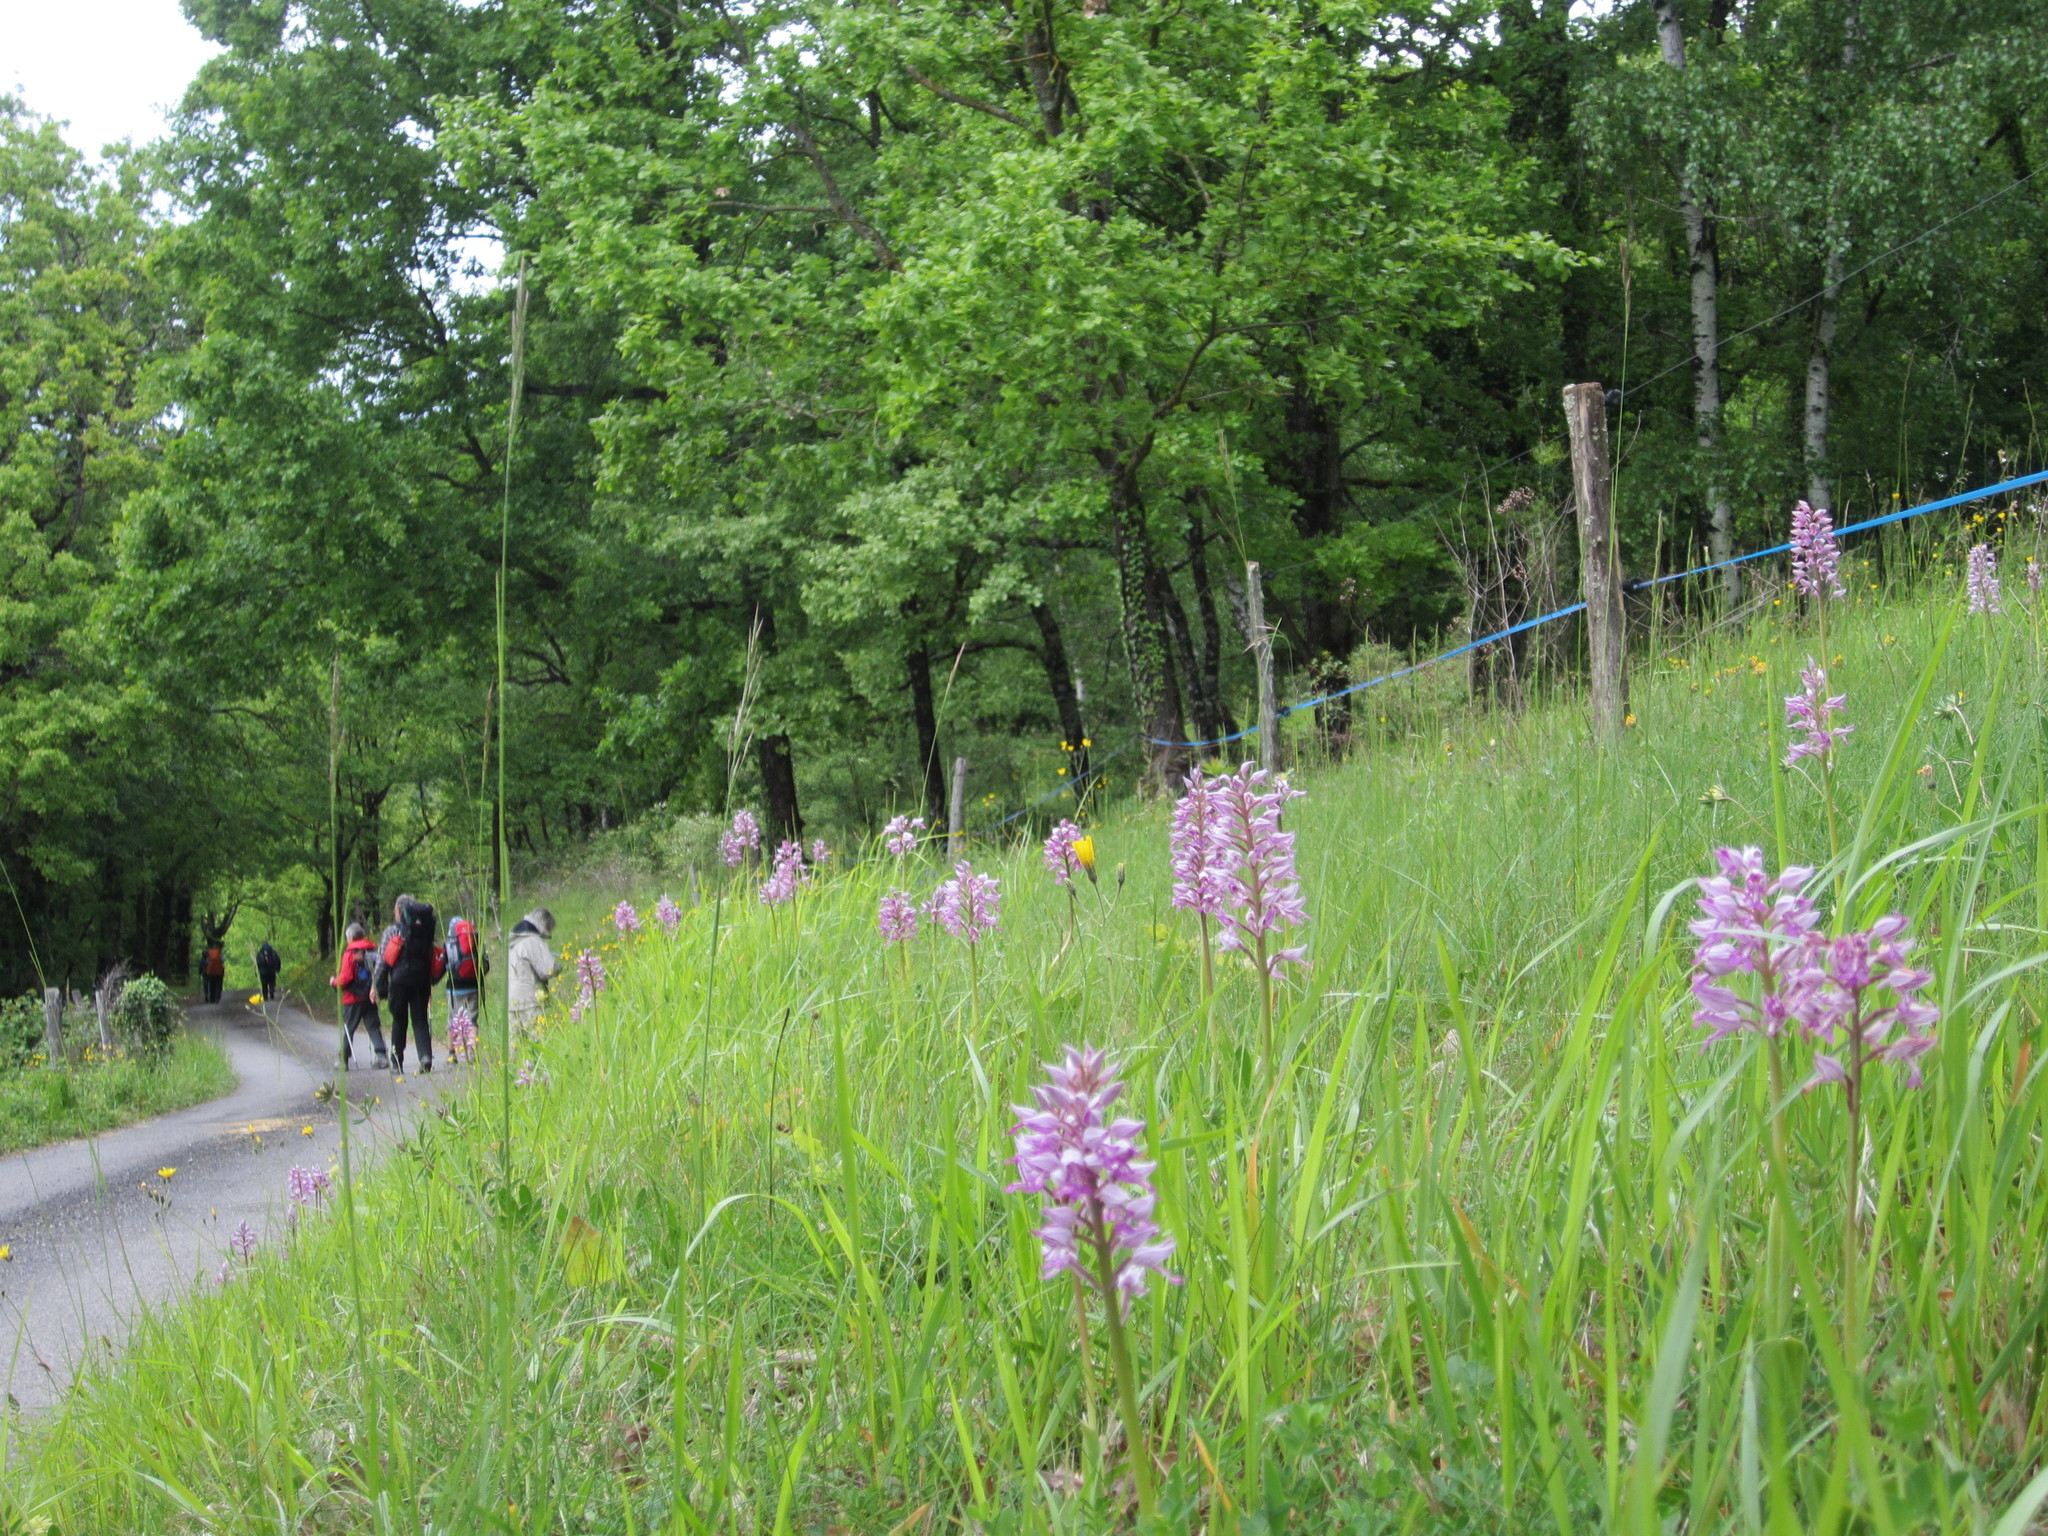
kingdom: Plantae
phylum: Tracheophyta
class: Liliopsida
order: Asparagales
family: Orchidaceae
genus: Orchis
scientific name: Orchis militaris
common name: Military orchid
